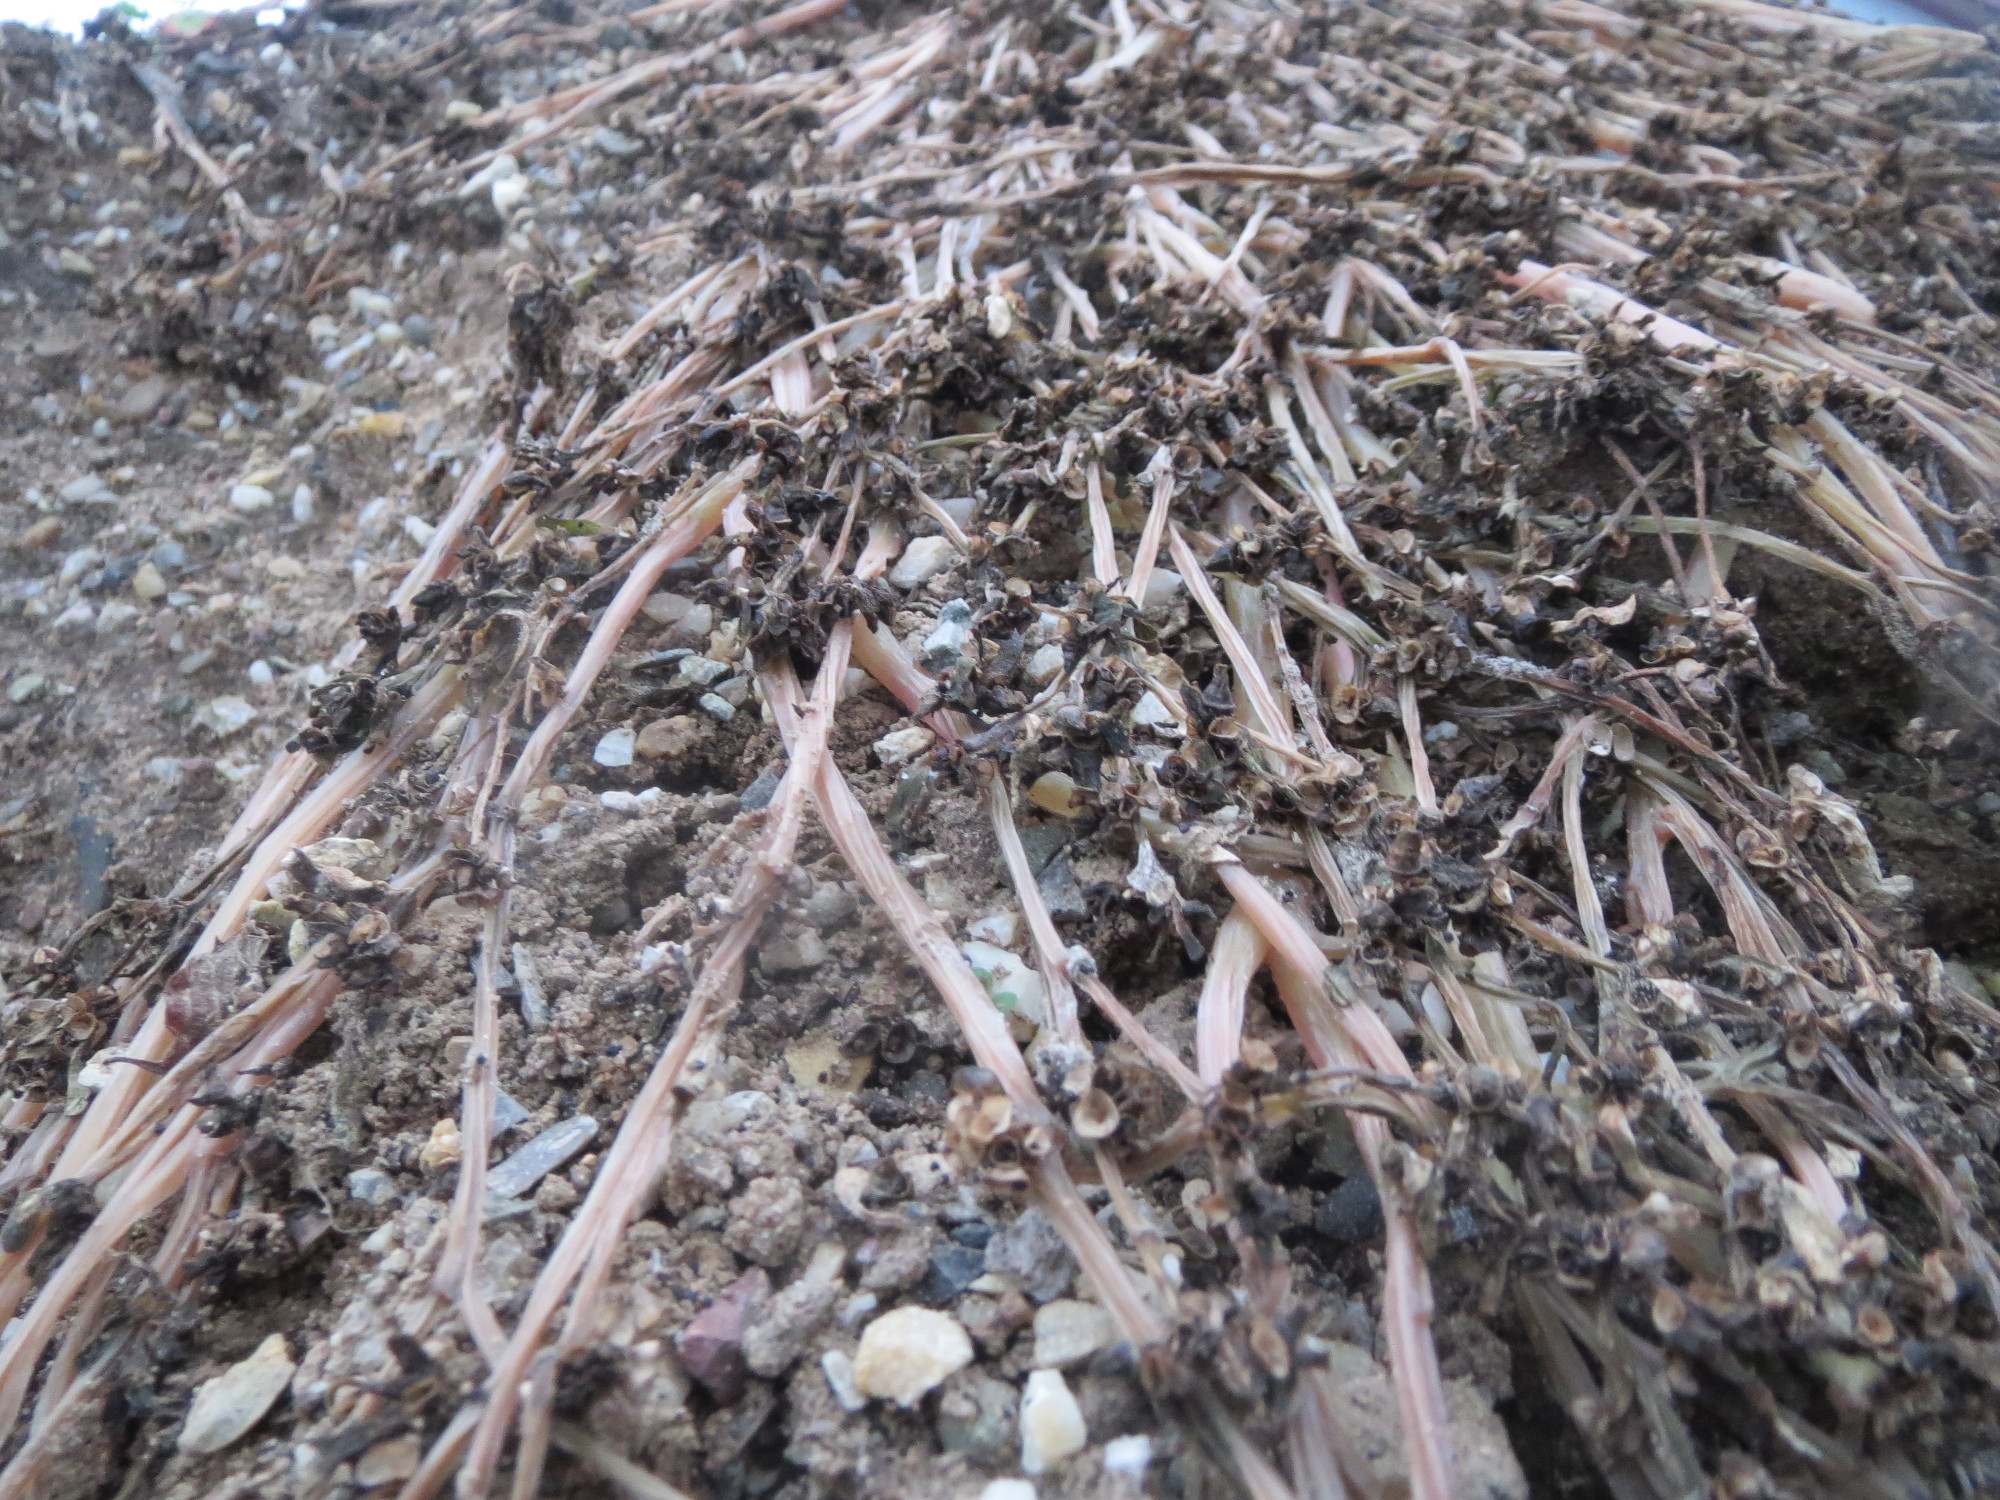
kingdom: Plantae
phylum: Tracheophyta
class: Magnoliopsida
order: Caryophyllales
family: Portulacaceae
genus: Portulaca
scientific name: Portulaca oleracea
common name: Common purslane
